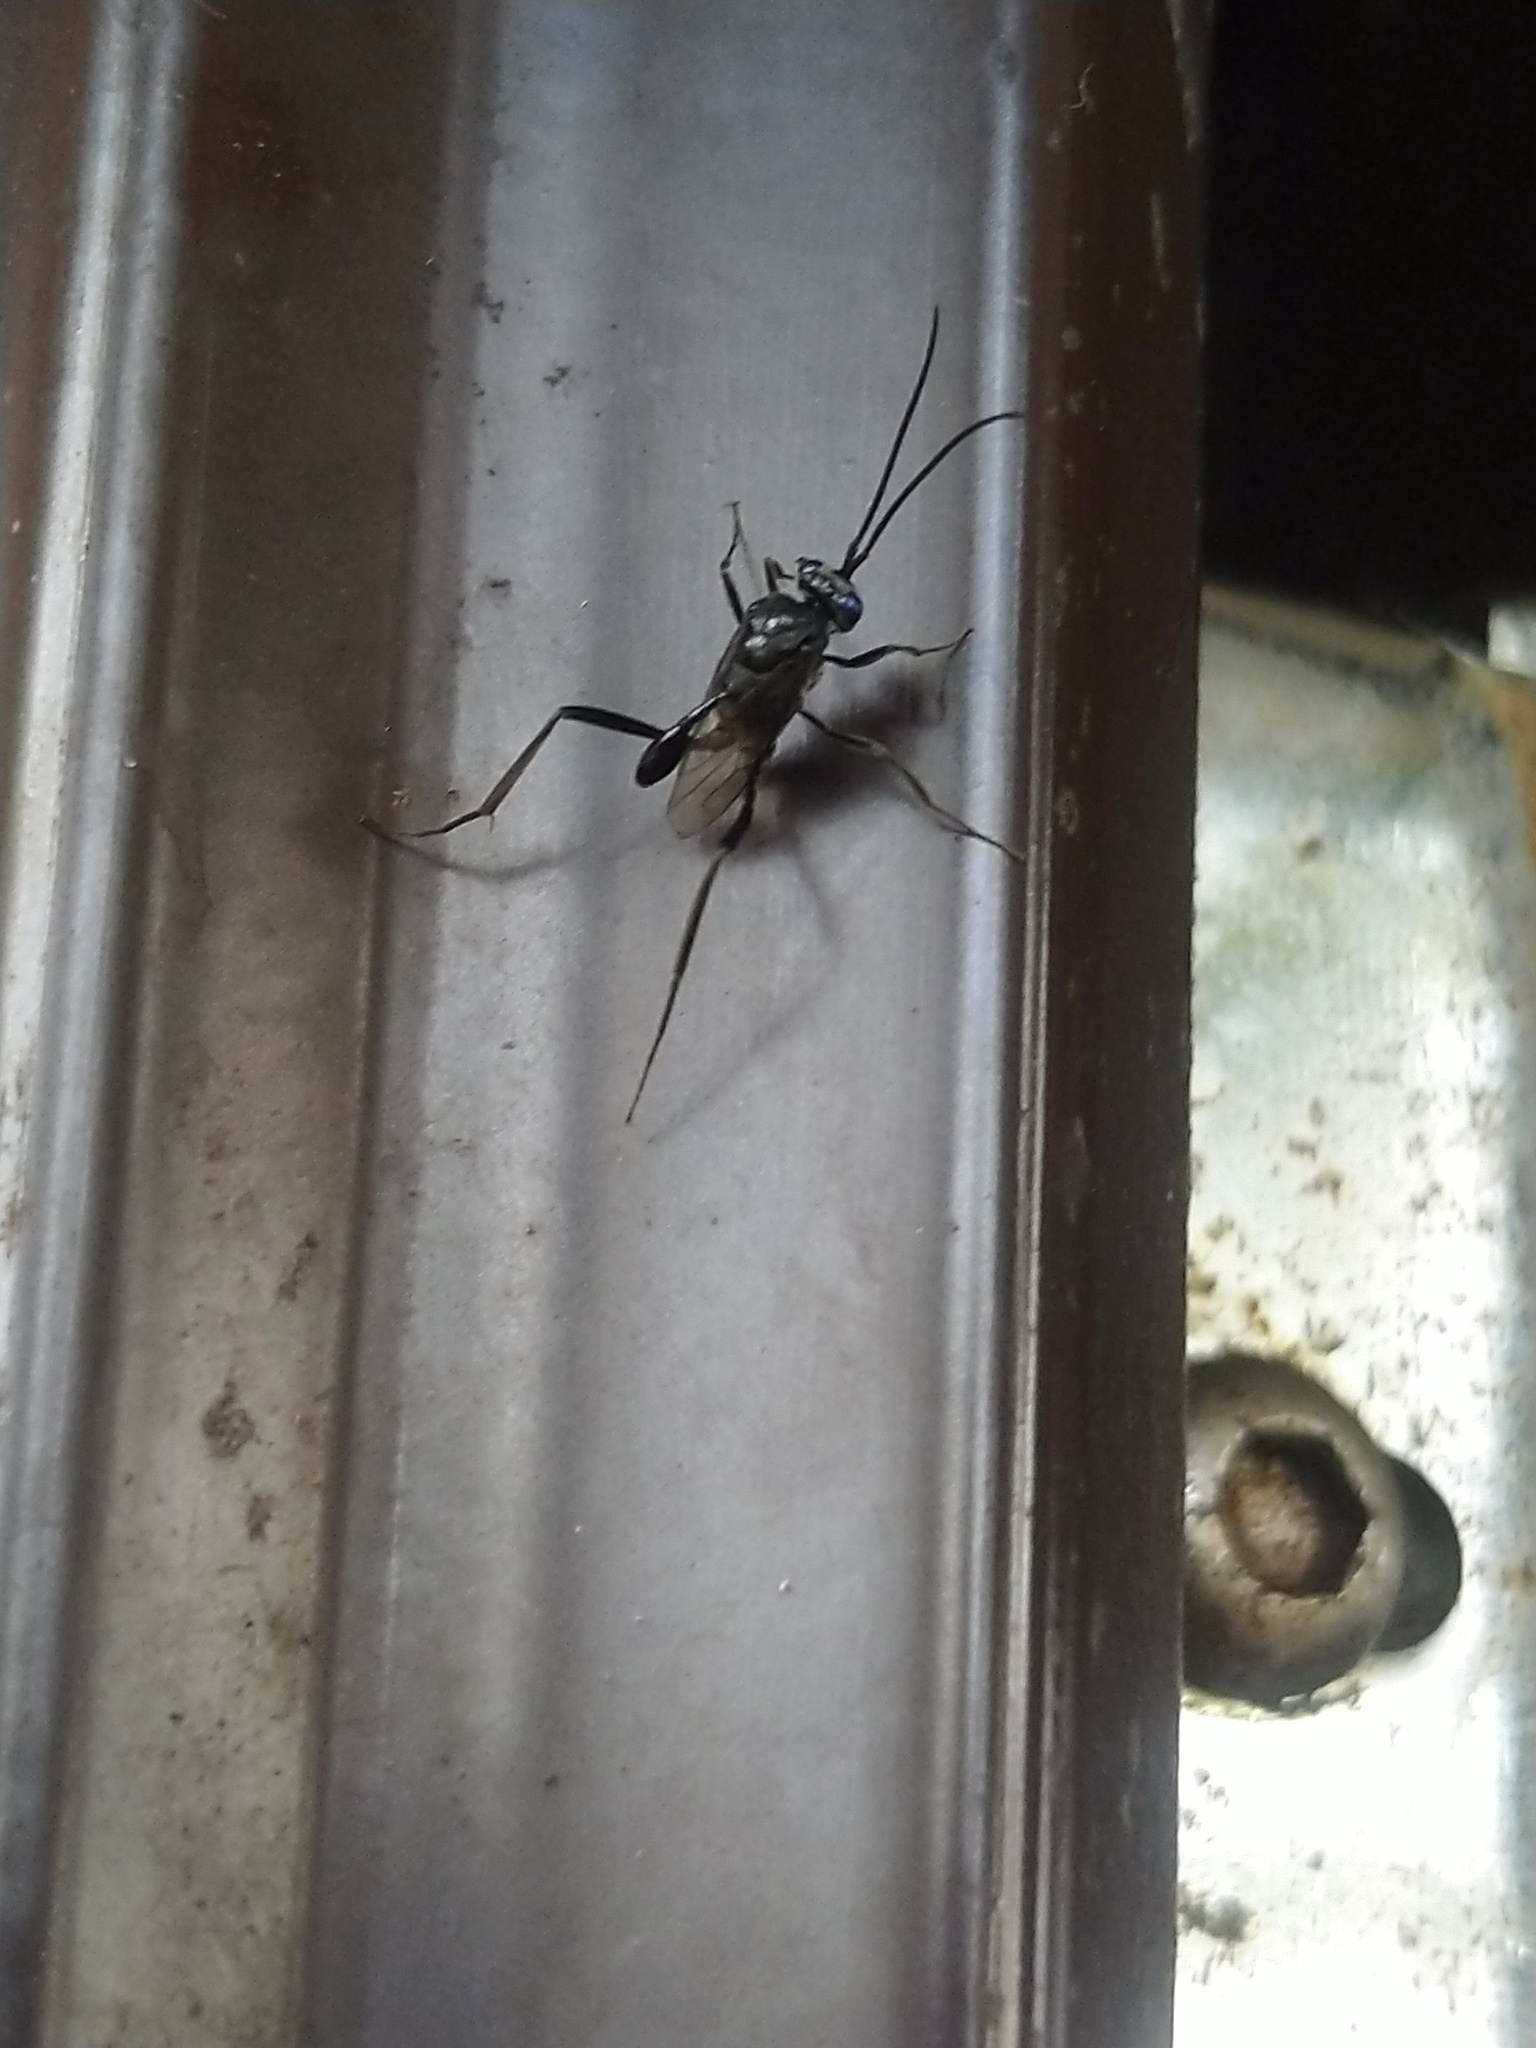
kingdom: Animalia
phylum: Arthropoda
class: Insecta
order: Hymenoptera
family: Evaniidae
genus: Evania
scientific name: Evania appendigaster
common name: Ensign wasp
